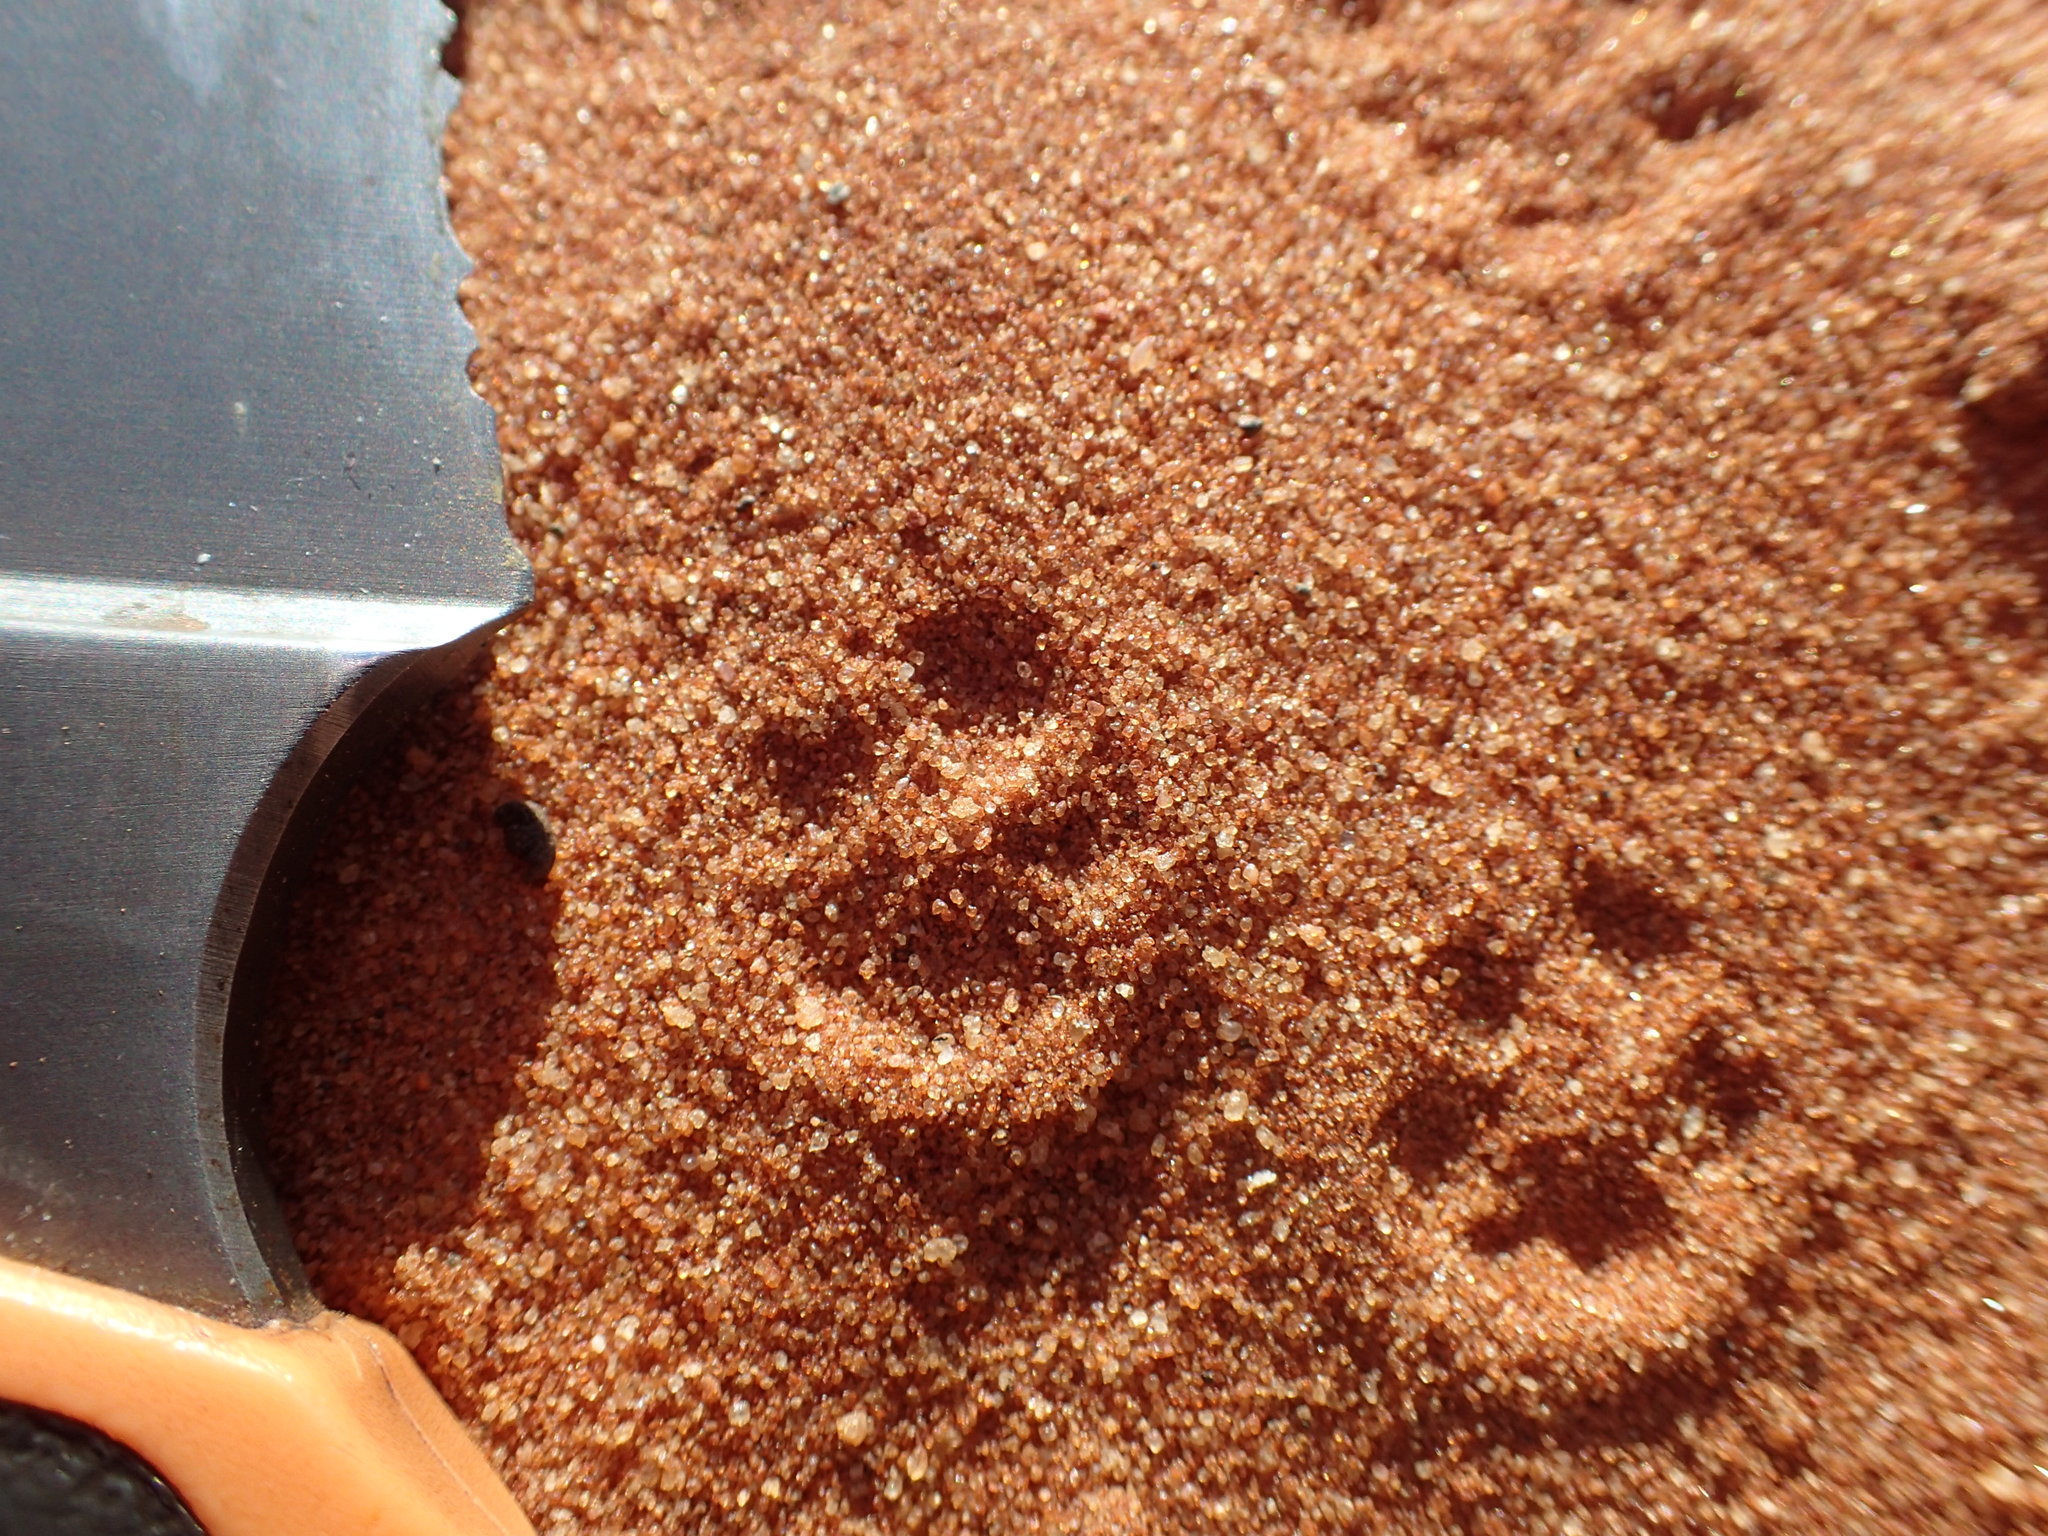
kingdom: Animalia
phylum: Chordata
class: Mammalia
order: Rodentia
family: Muridae
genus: Gerbillurus
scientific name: Gerbillurus paeba
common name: Paeba hairy-footed gerbil
